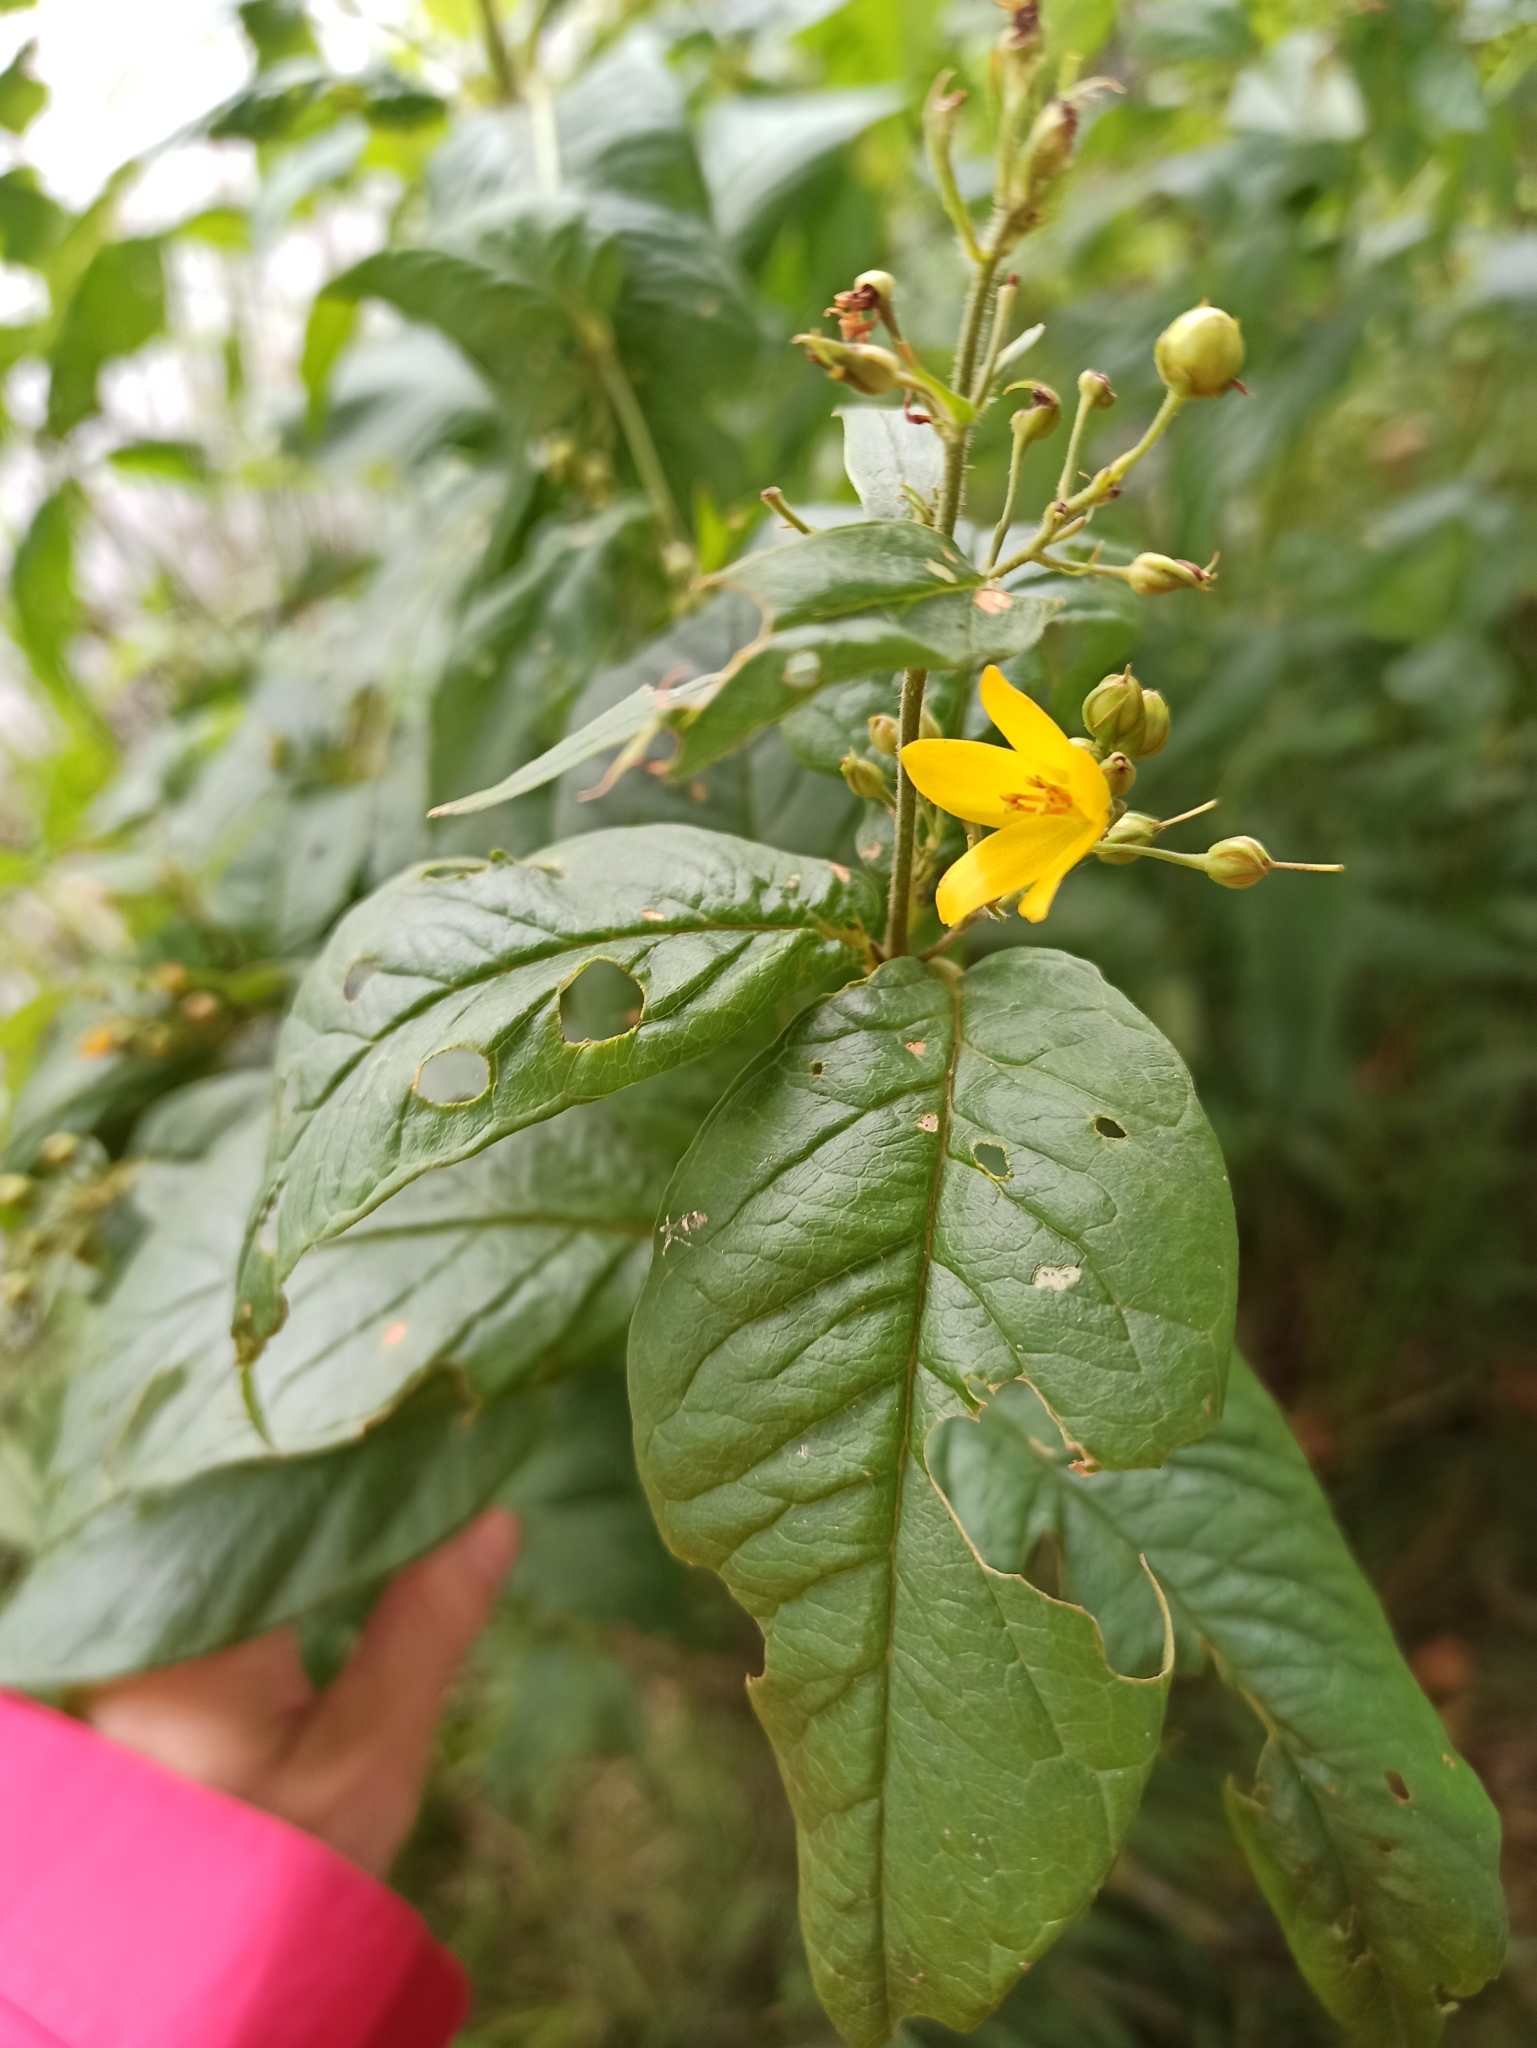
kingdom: Plantae
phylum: Tracheophyta
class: Magnoliopsida
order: Ericales
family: Primulaceae
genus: Lysimachia
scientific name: Lysimachia vulgaris
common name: Yellow loosestrife
